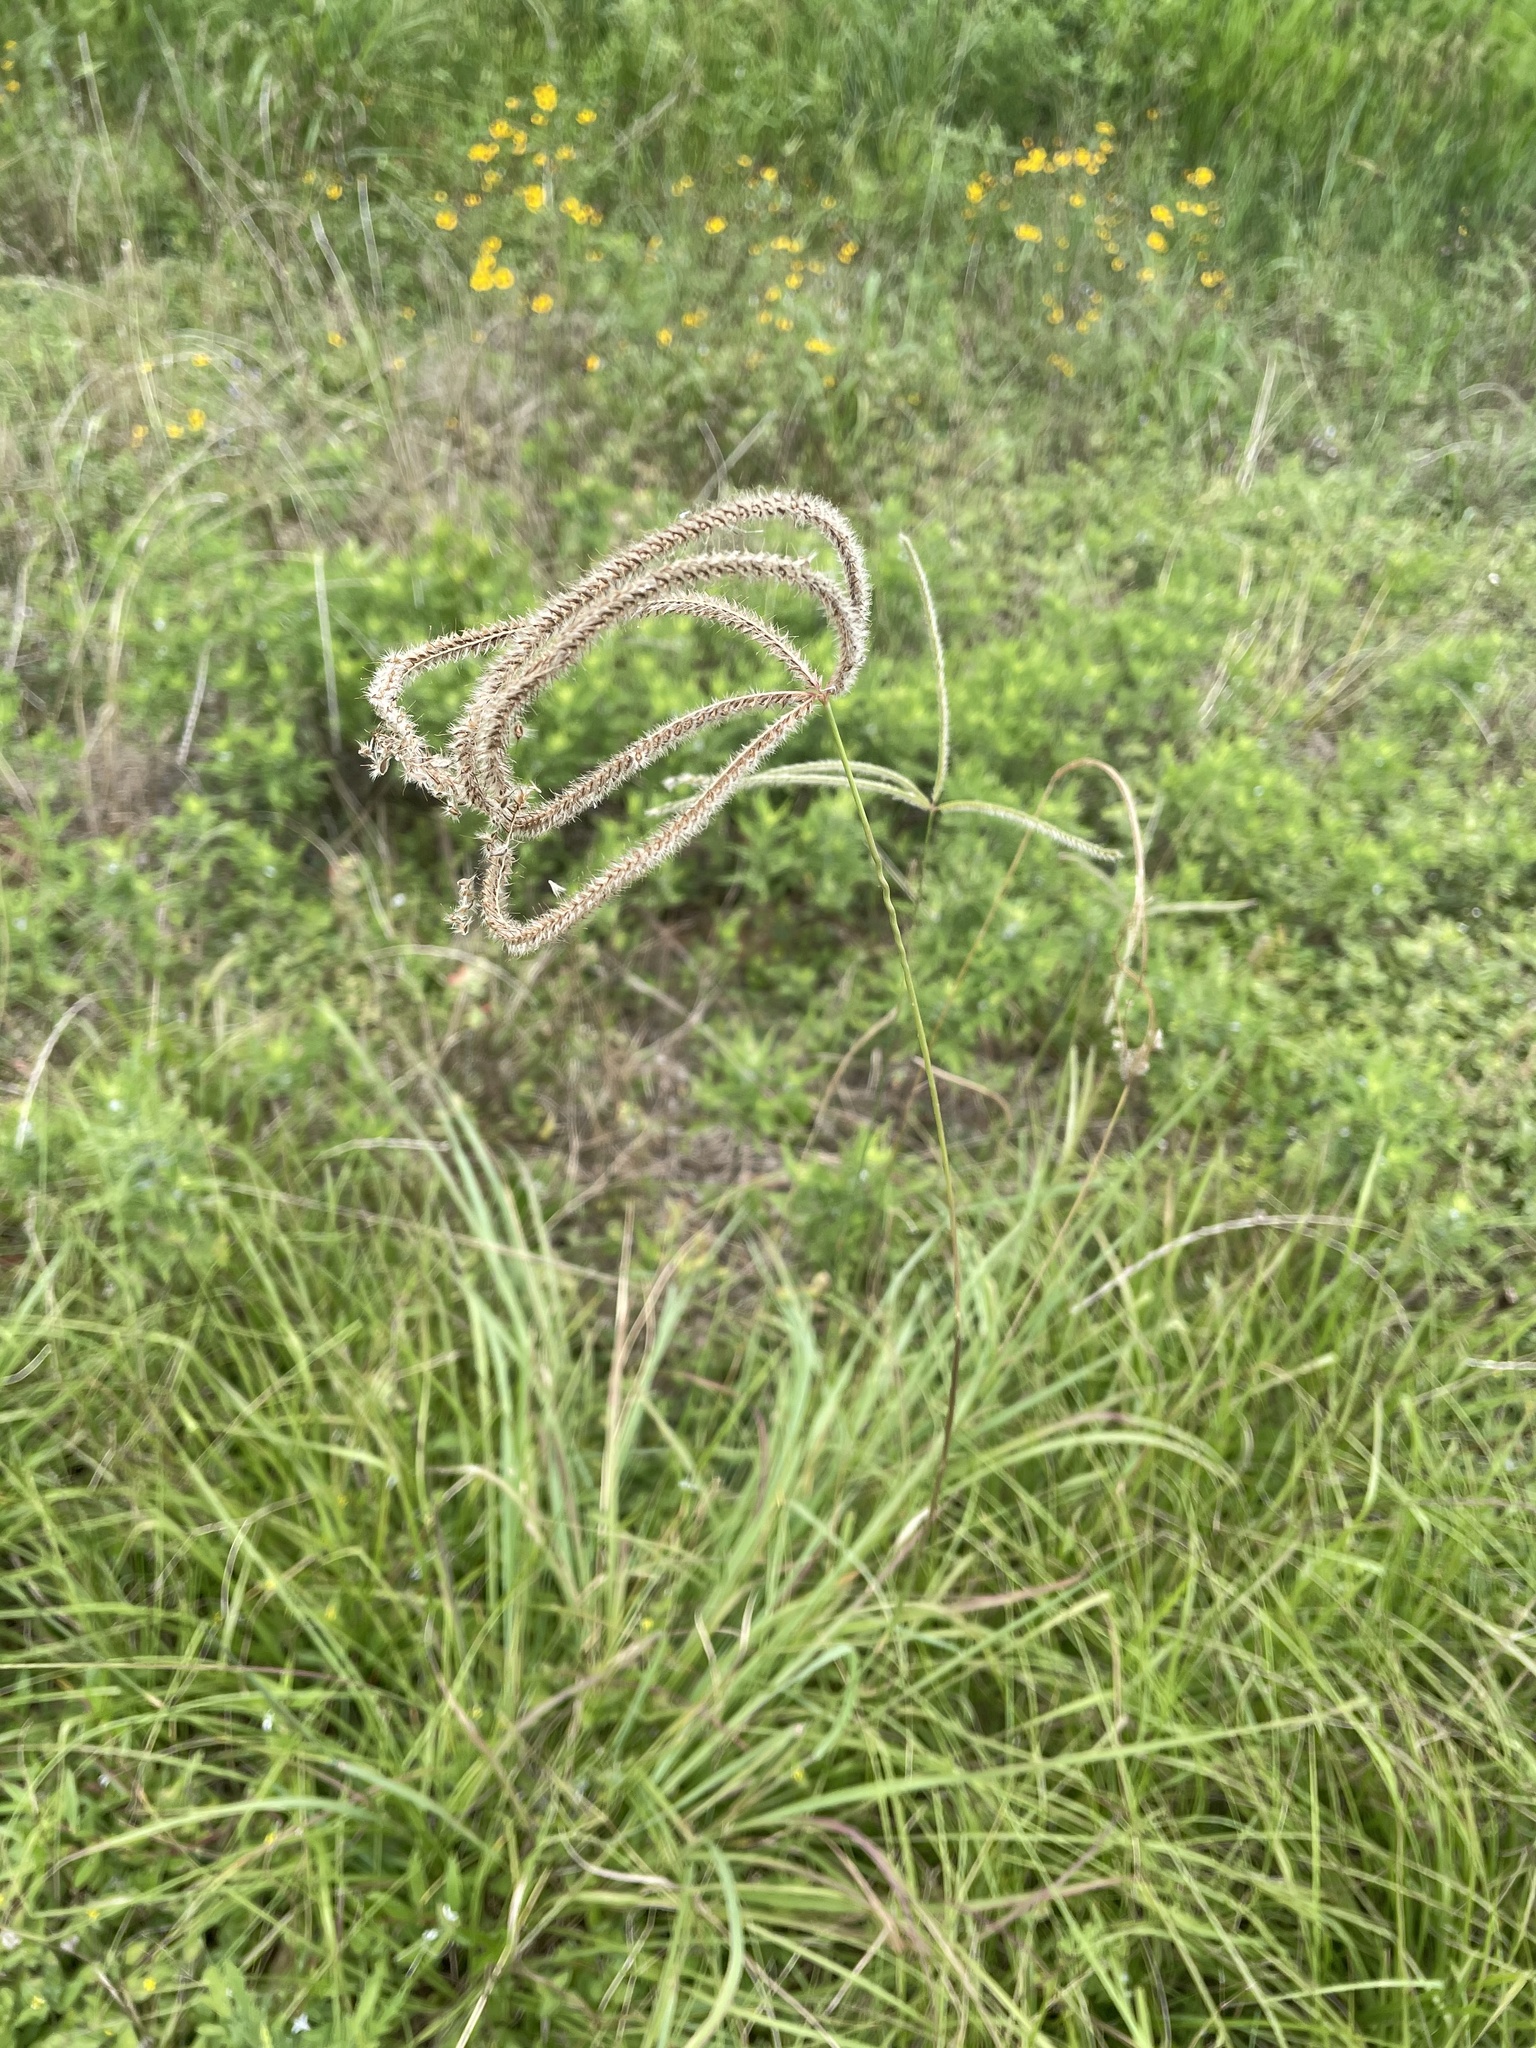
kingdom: Plantae
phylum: Tracheophyta
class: Liliopsida
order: Poales
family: Poaceae
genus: Stapfochloa
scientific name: Stapfochloa canterae
